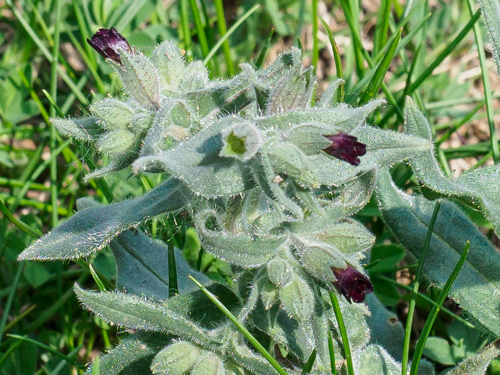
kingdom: Plantae
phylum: Tracheophyta
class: Magnoliopsida
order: Boraginales
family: Boraginaceae
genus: Nonea
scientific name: Nonea pulla
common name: Brown nonea
